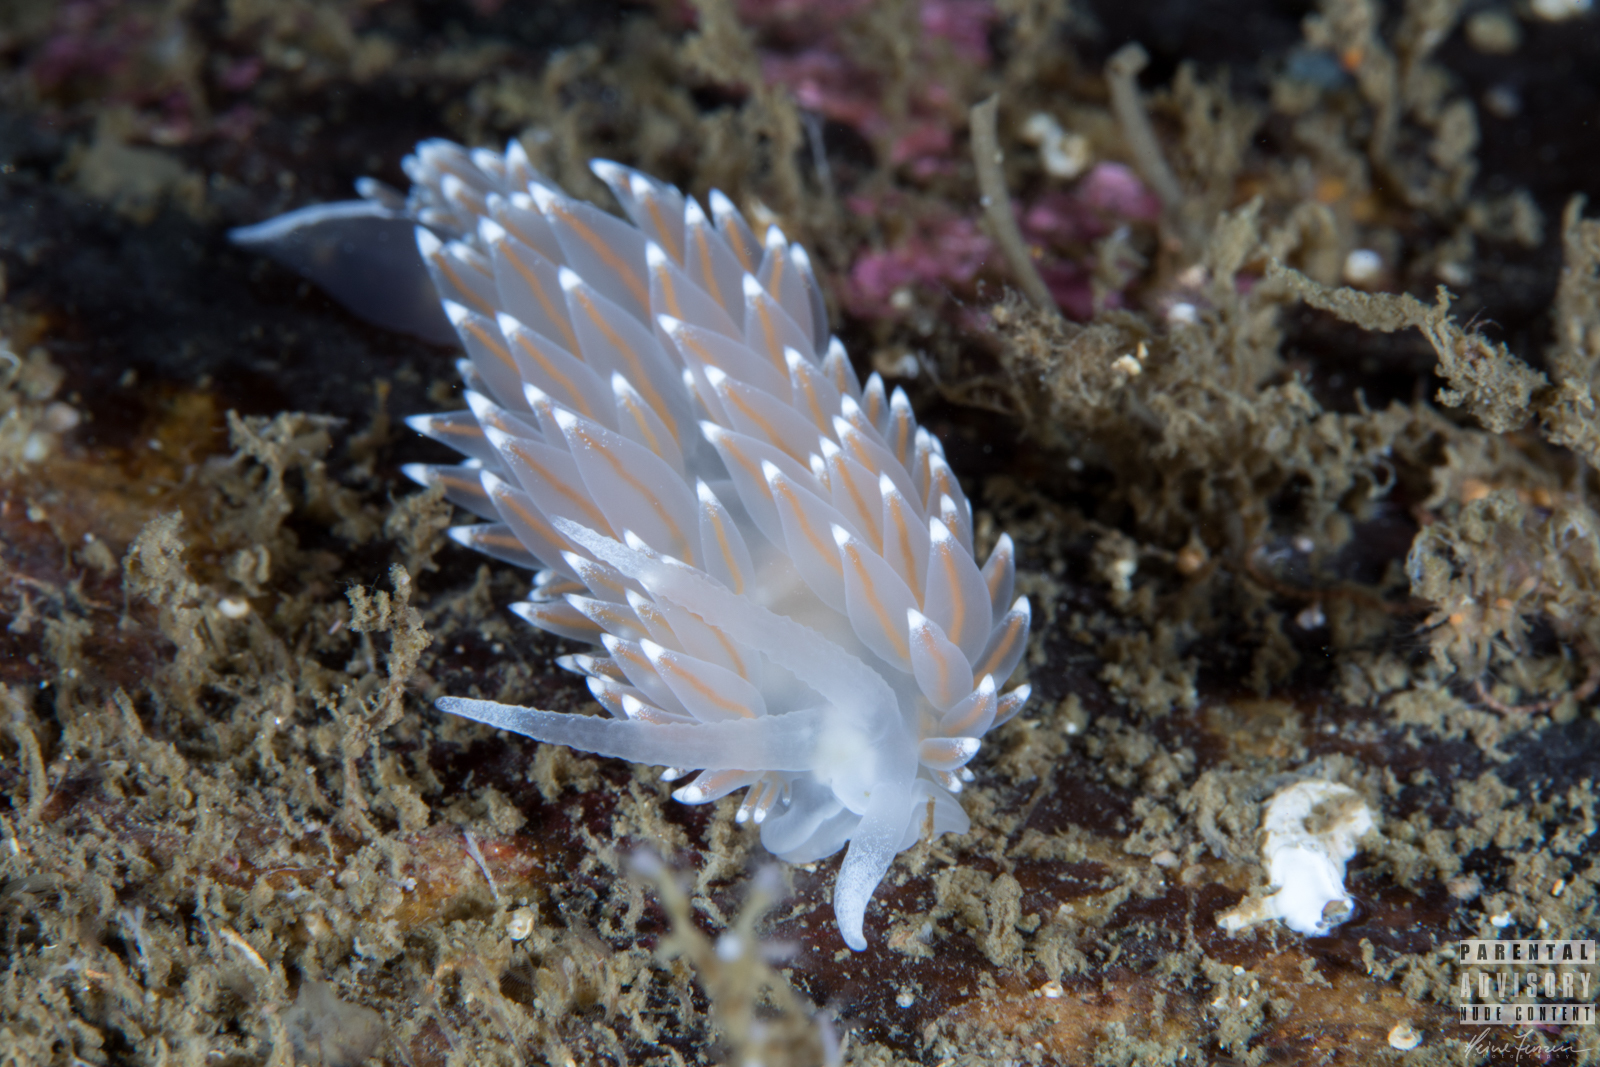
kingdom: Animalia
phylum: Mollusca
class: Gastropoda
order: Nudibranchia
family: Coryphellidae
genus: Coryphella
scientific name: Coryphella nobilis
